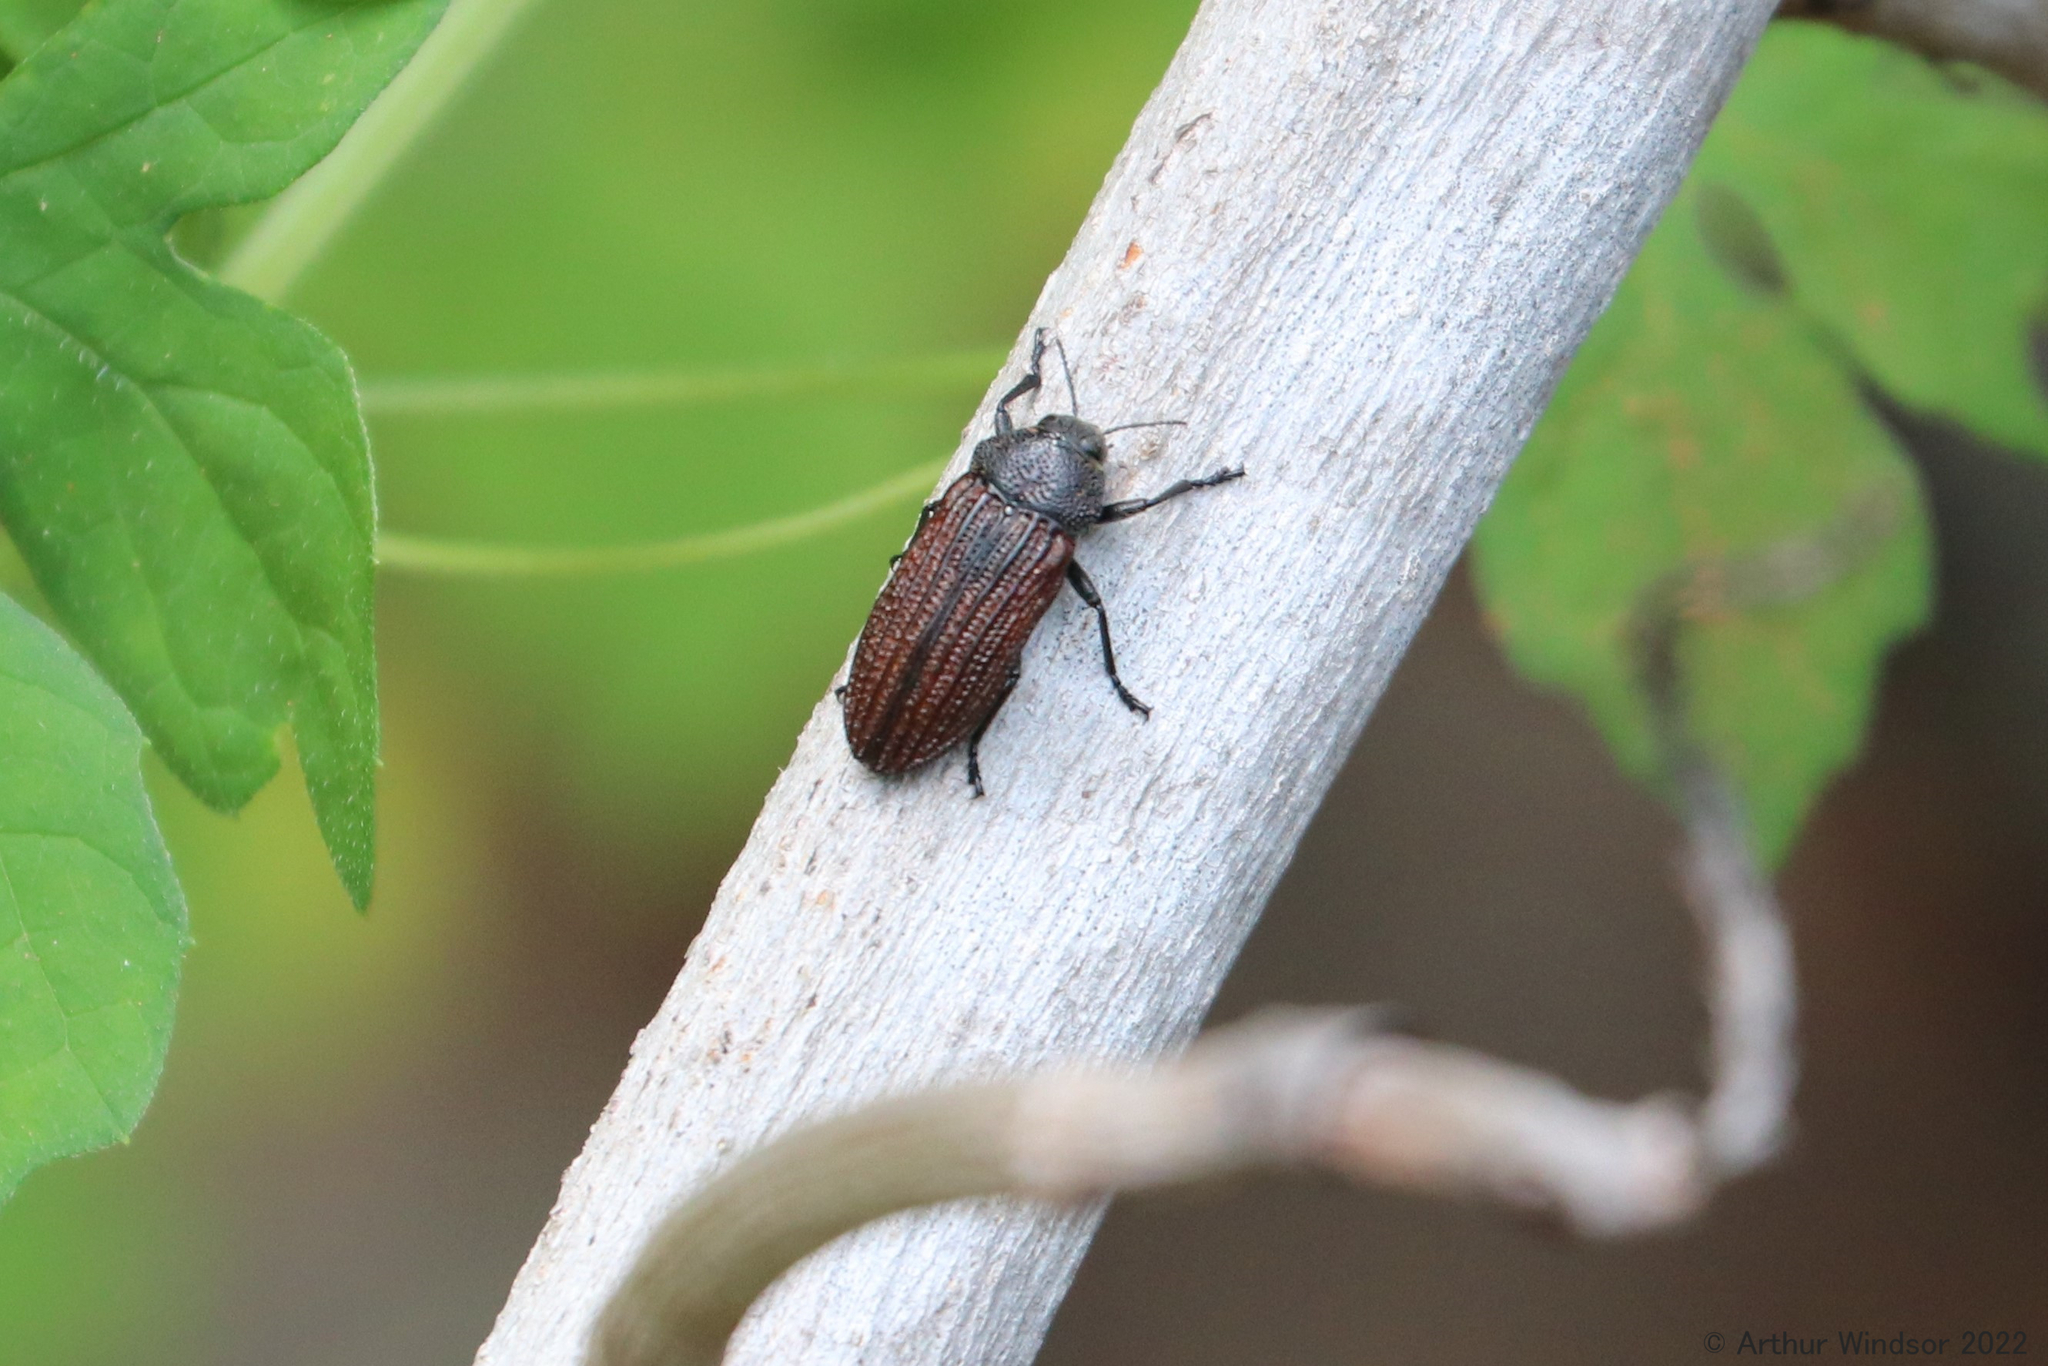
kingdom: Animalia
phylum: Arthropoda
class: Insecta
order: Coleoptera
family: Buprestidae
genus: Polycesta
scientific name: Polycesta goryi
